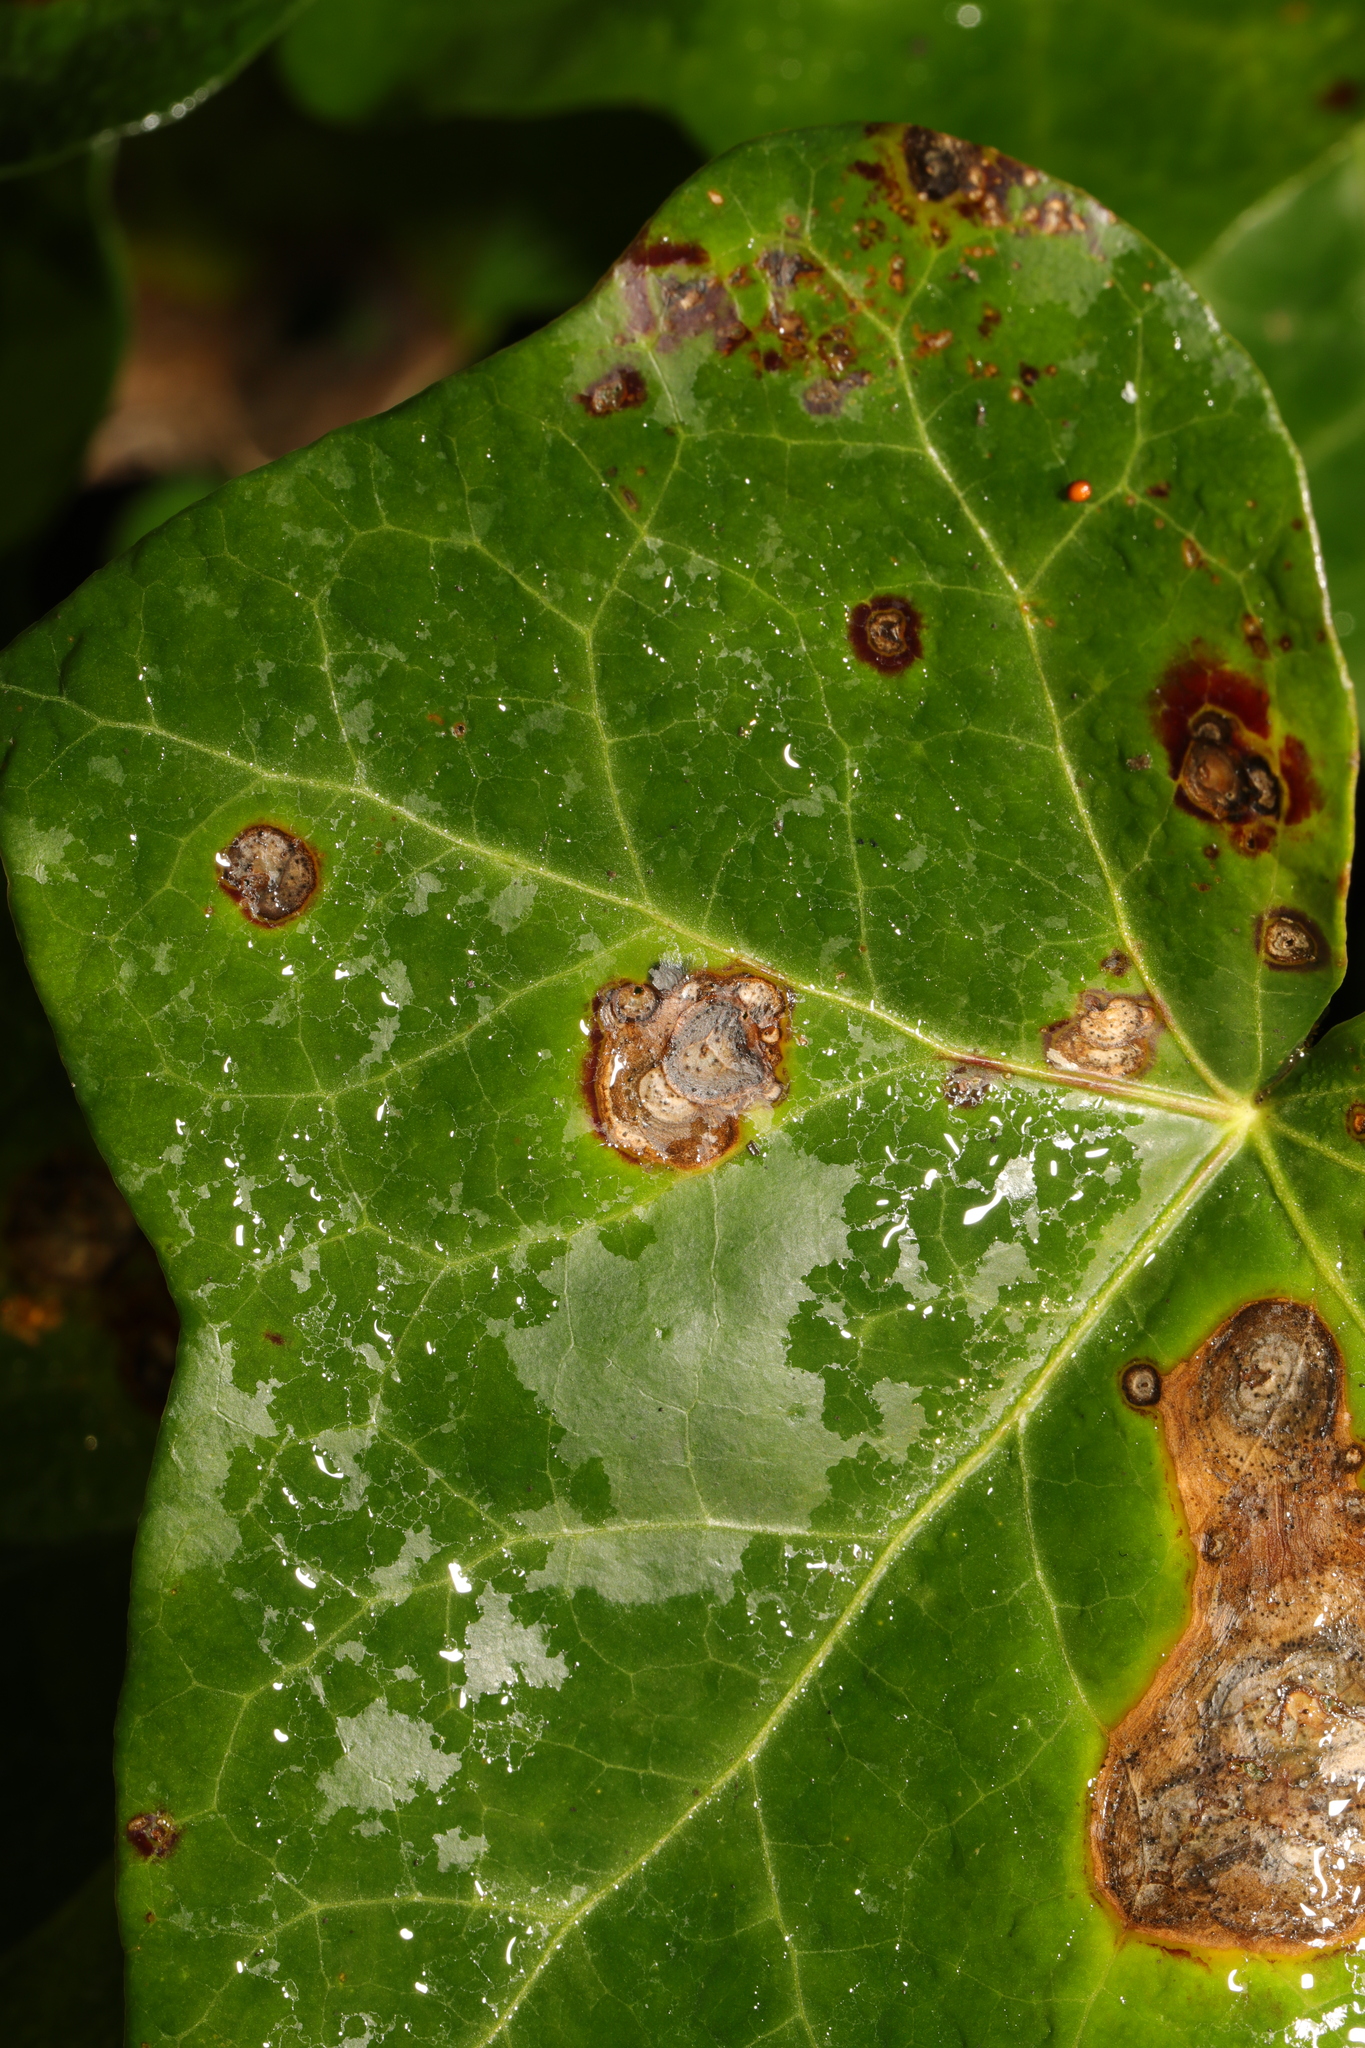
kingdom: Fungi
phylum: Ascomycota
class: Dothideomycetes
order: Pleosporales
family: Didymellaceae
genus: Boeremia
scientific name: Boeremia hedericola
